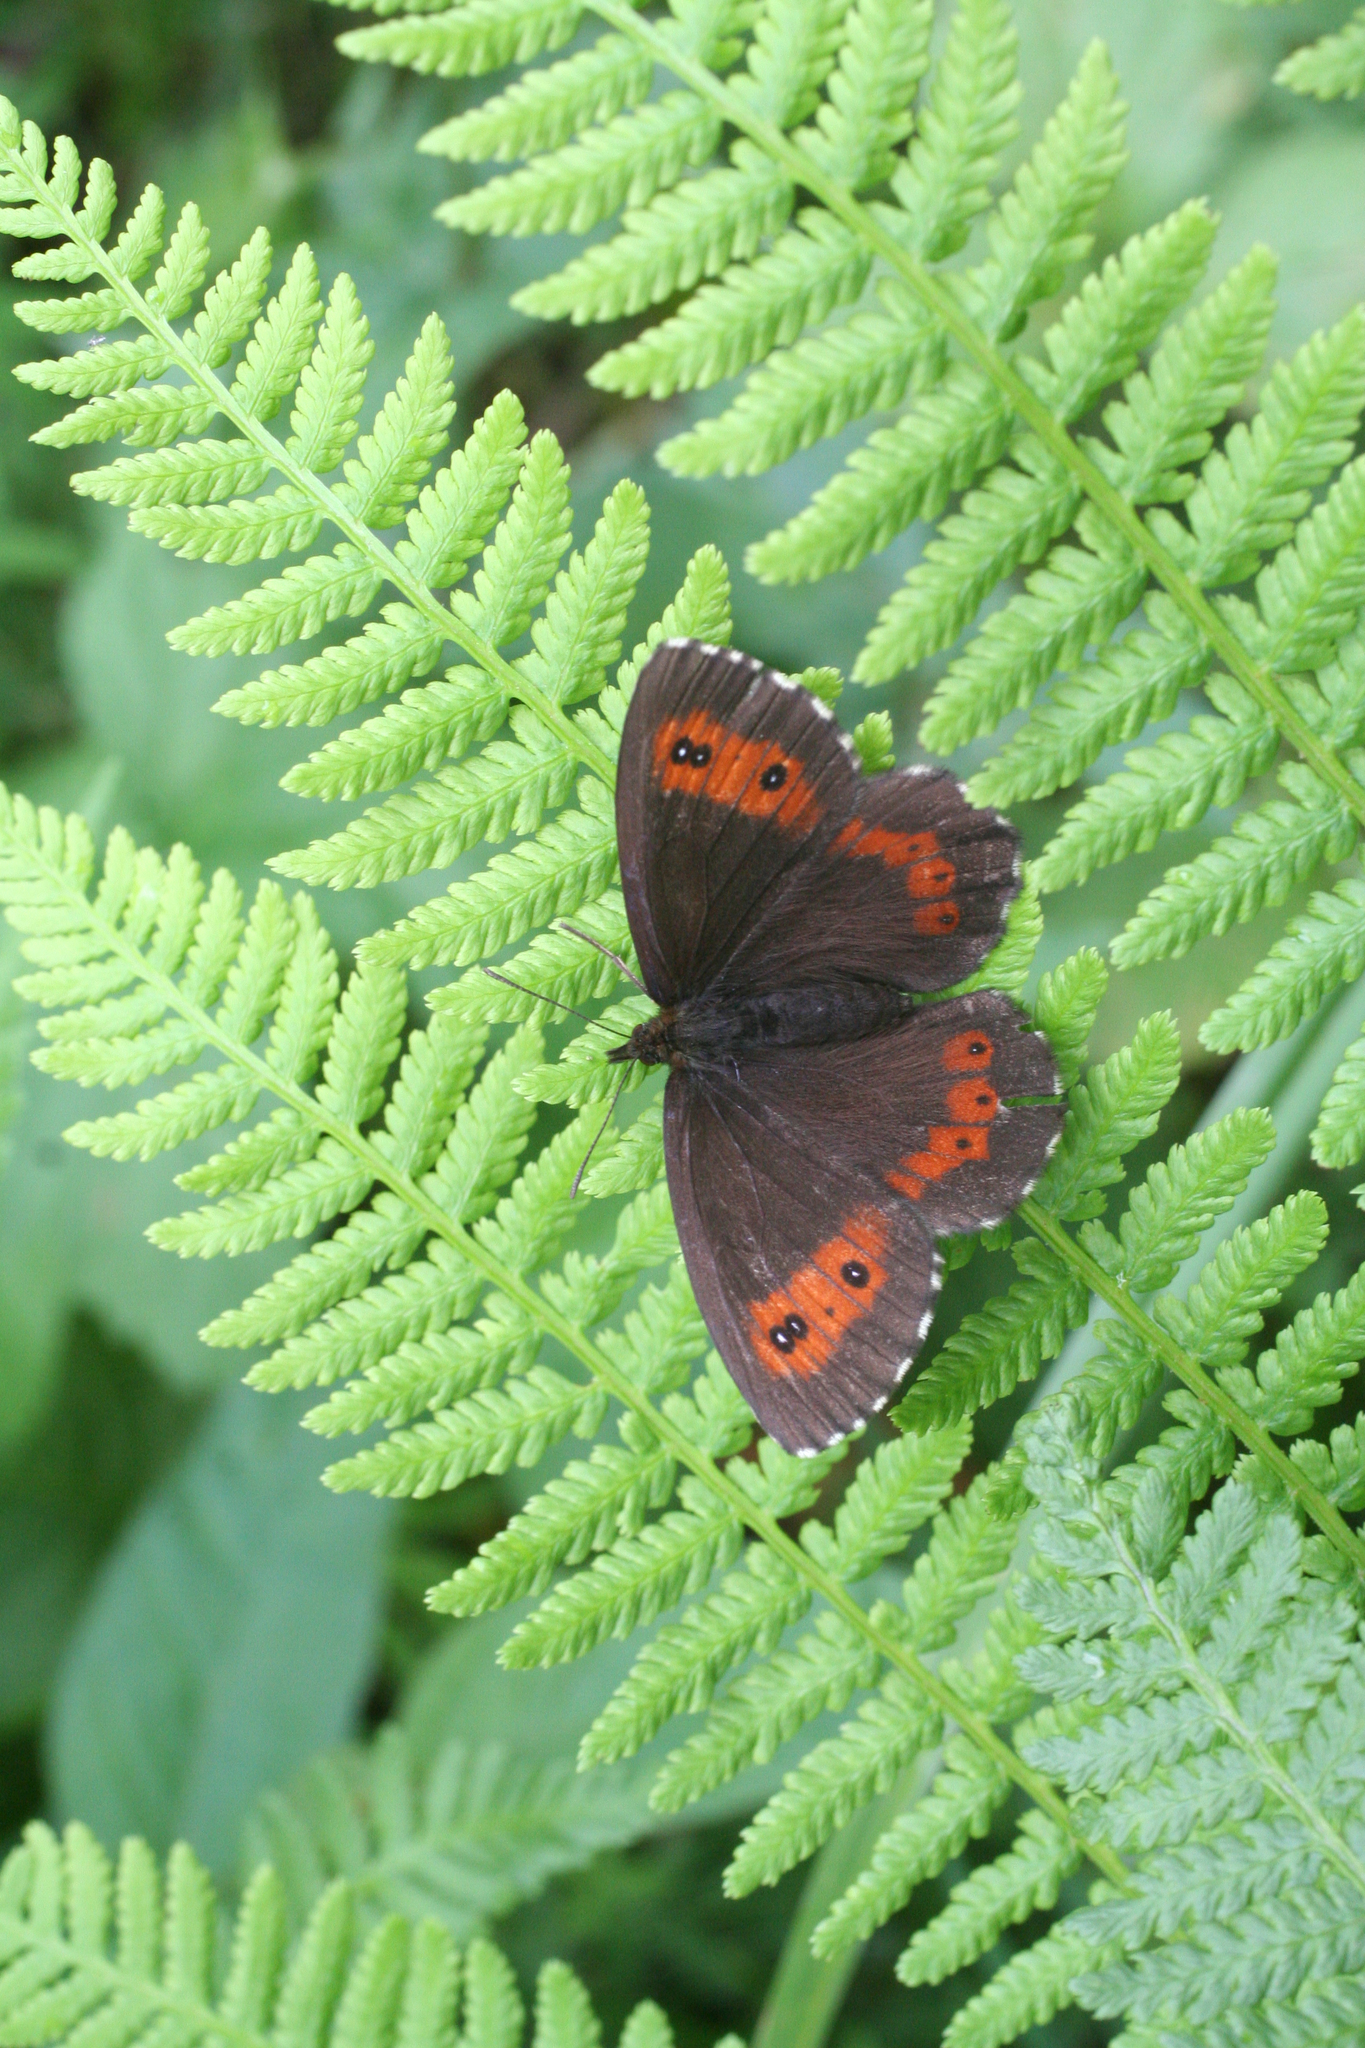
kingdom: Plantae
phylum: Tracheophyta
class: Polypodiopsida
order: Polypodiales
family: Athyriaceae
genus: Athyrium
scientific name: Athyrium filix-femina
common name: Lady fern
